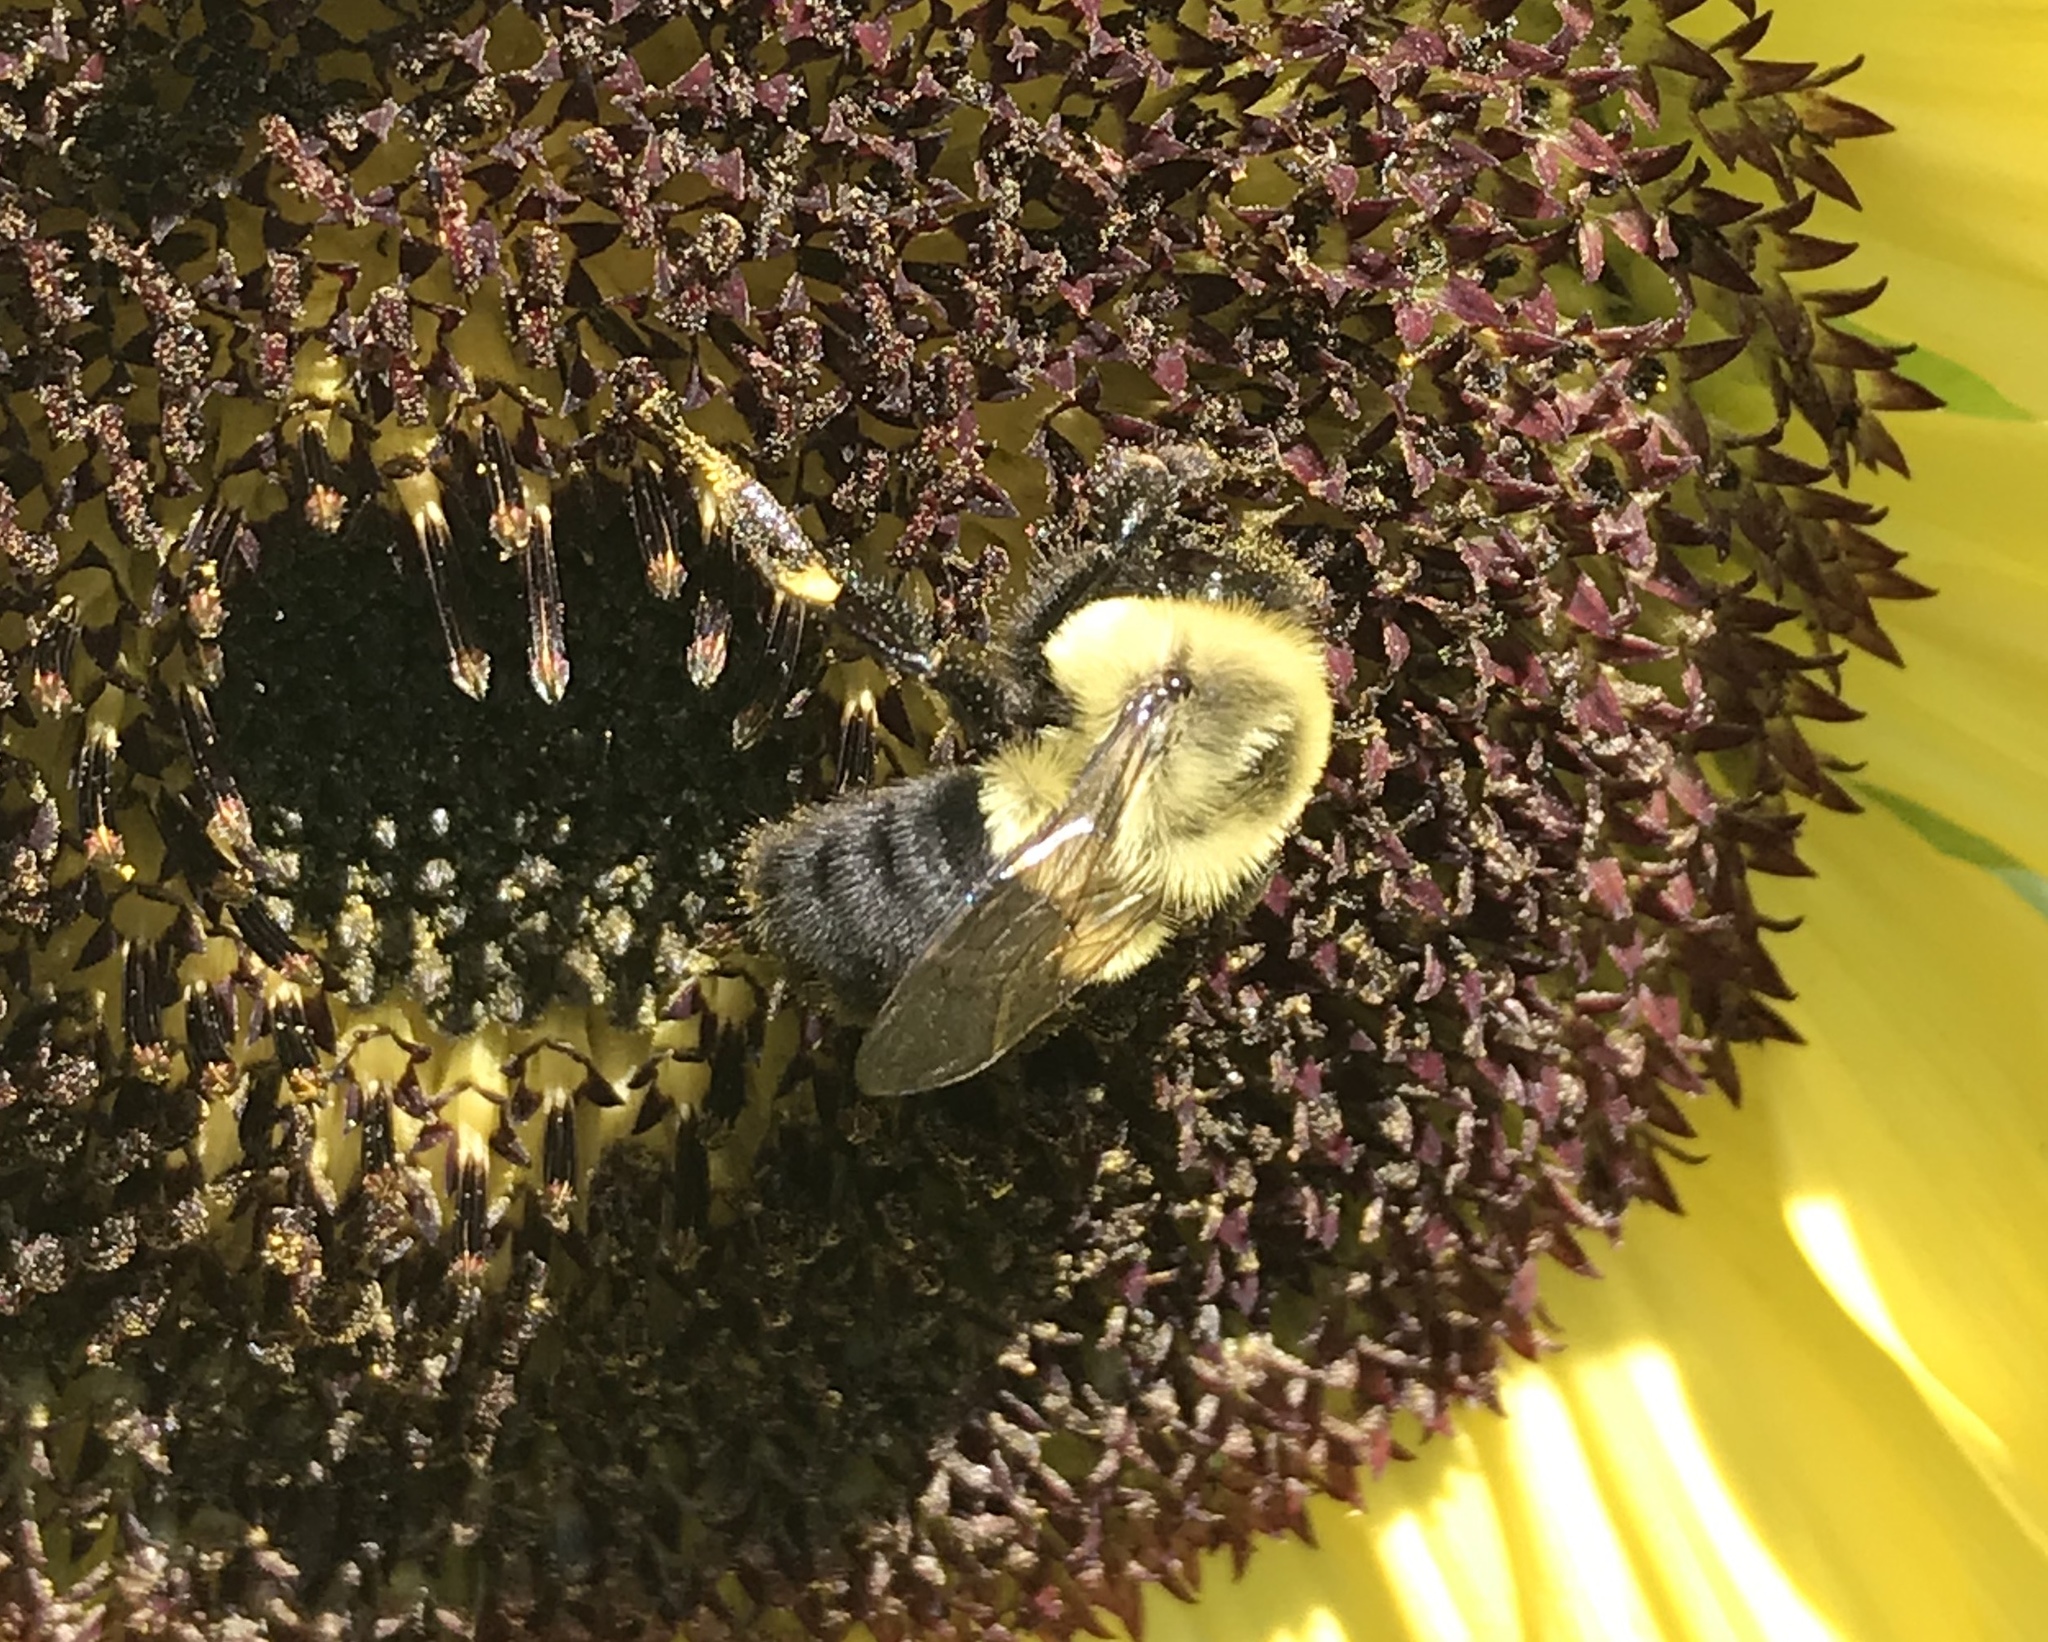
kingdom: Animalia
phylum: Arthropoda
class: Insecta
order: Hymenoptera
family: Apidae
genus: Bombus
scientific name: Bombus impatiens
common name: Common eastern bumble bee
